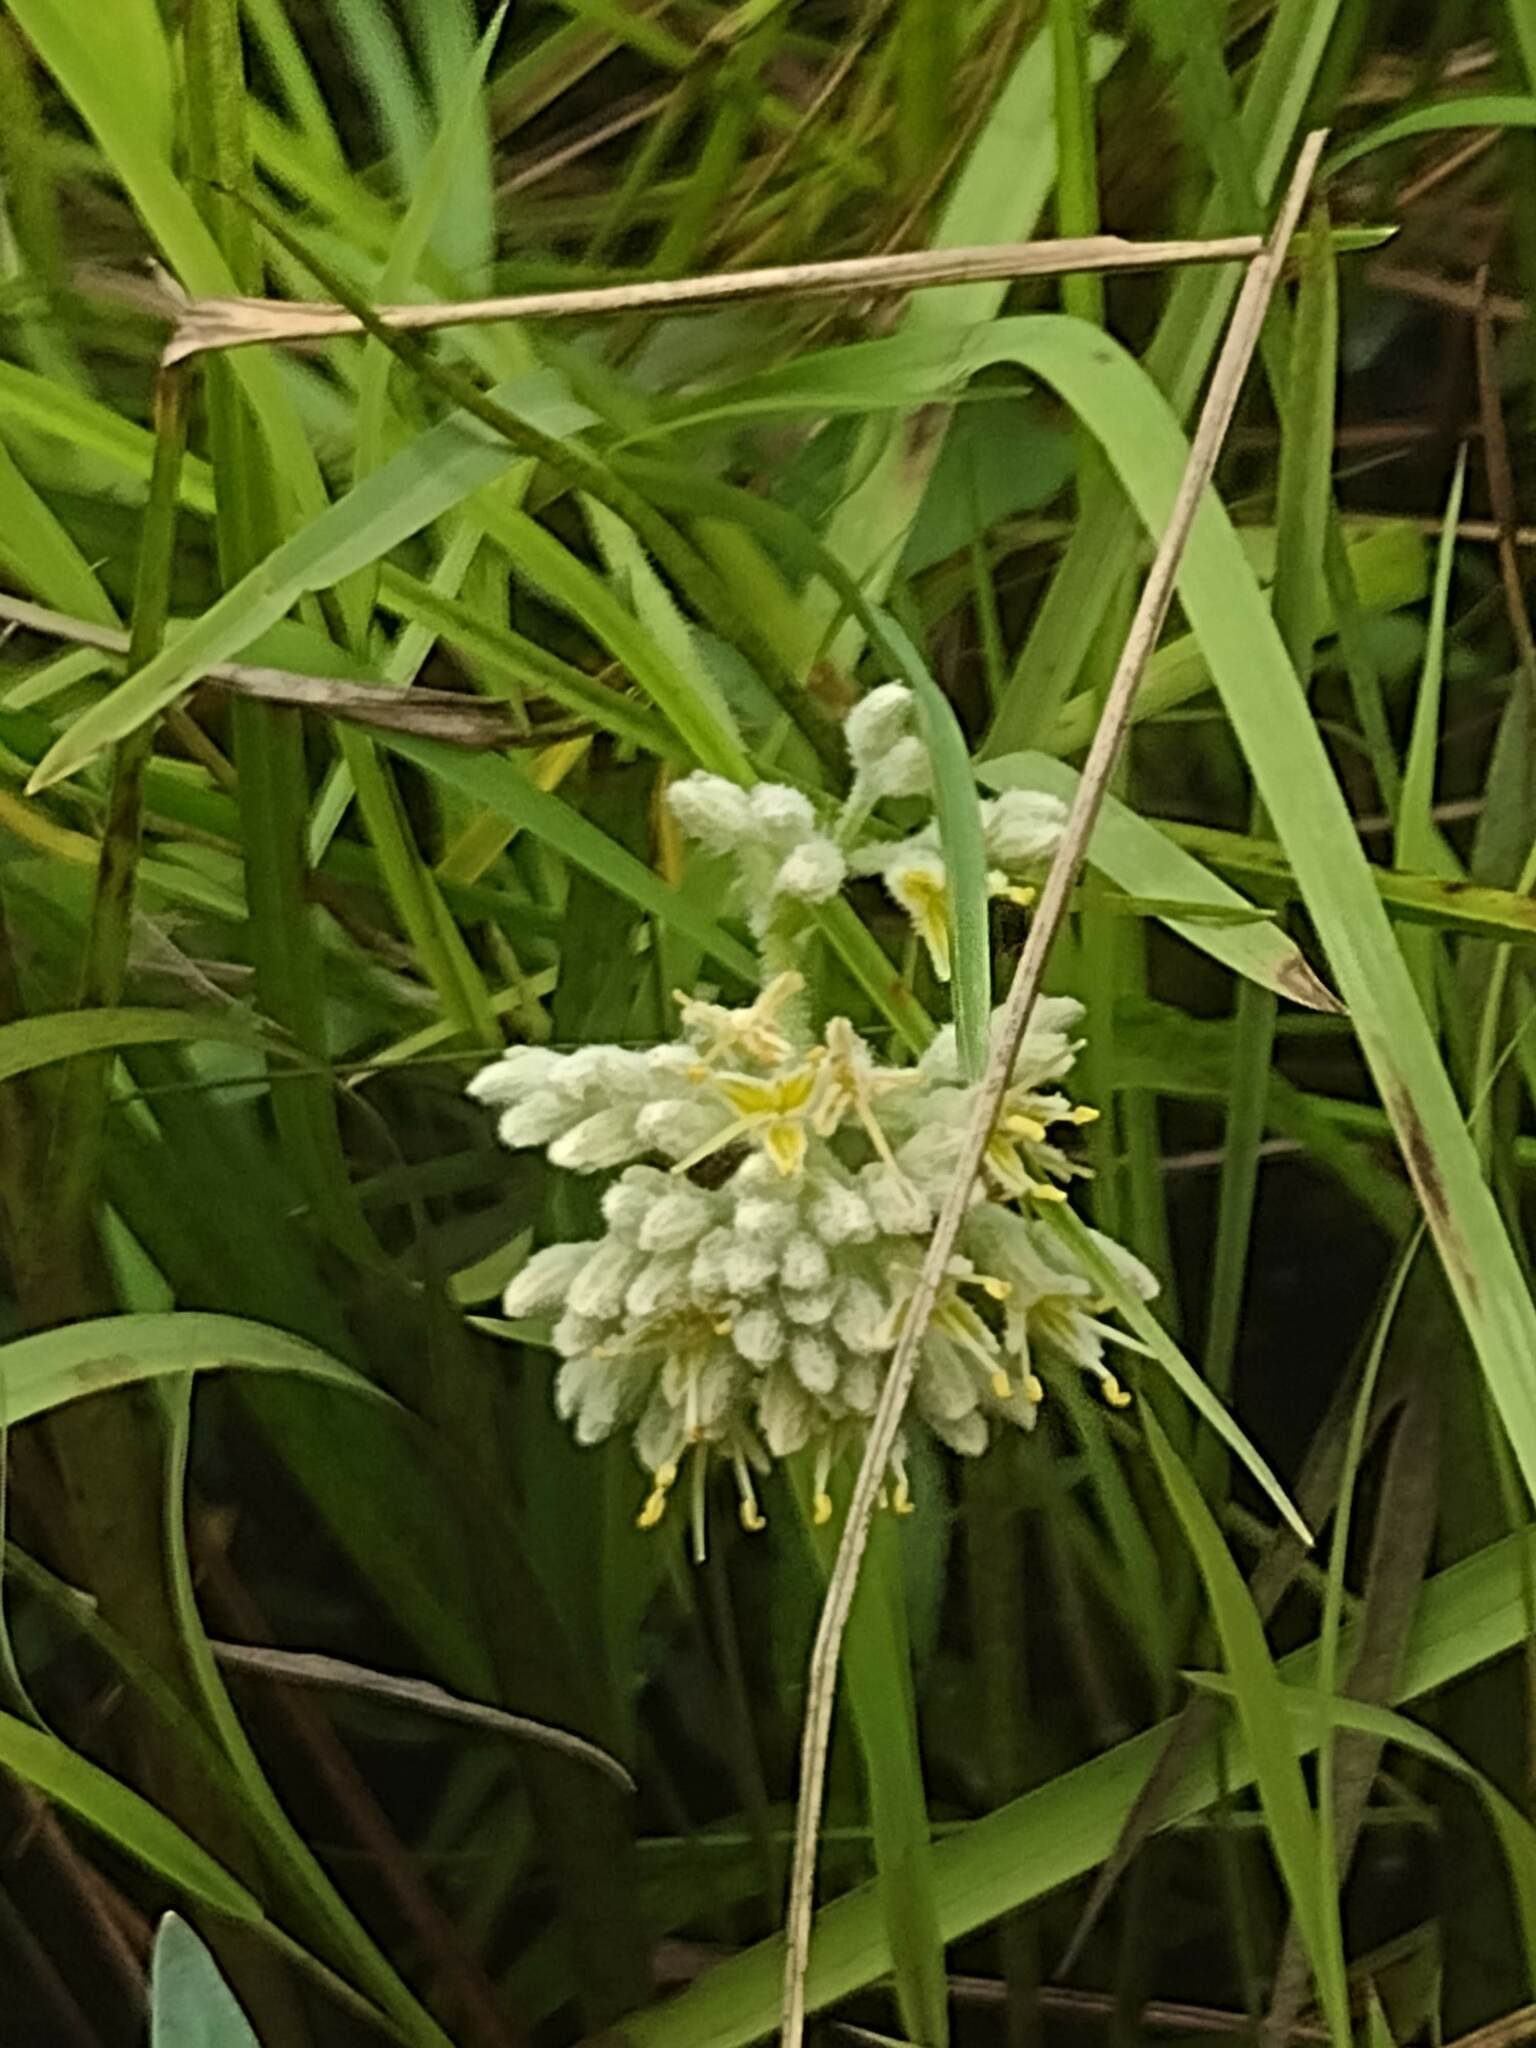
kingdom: Plantae
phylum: Tracheophyta
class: Liliopsida
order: Commelinales
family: Haemodoraceae
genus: Lachnanthes
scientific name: Lachnanthes caroliana
